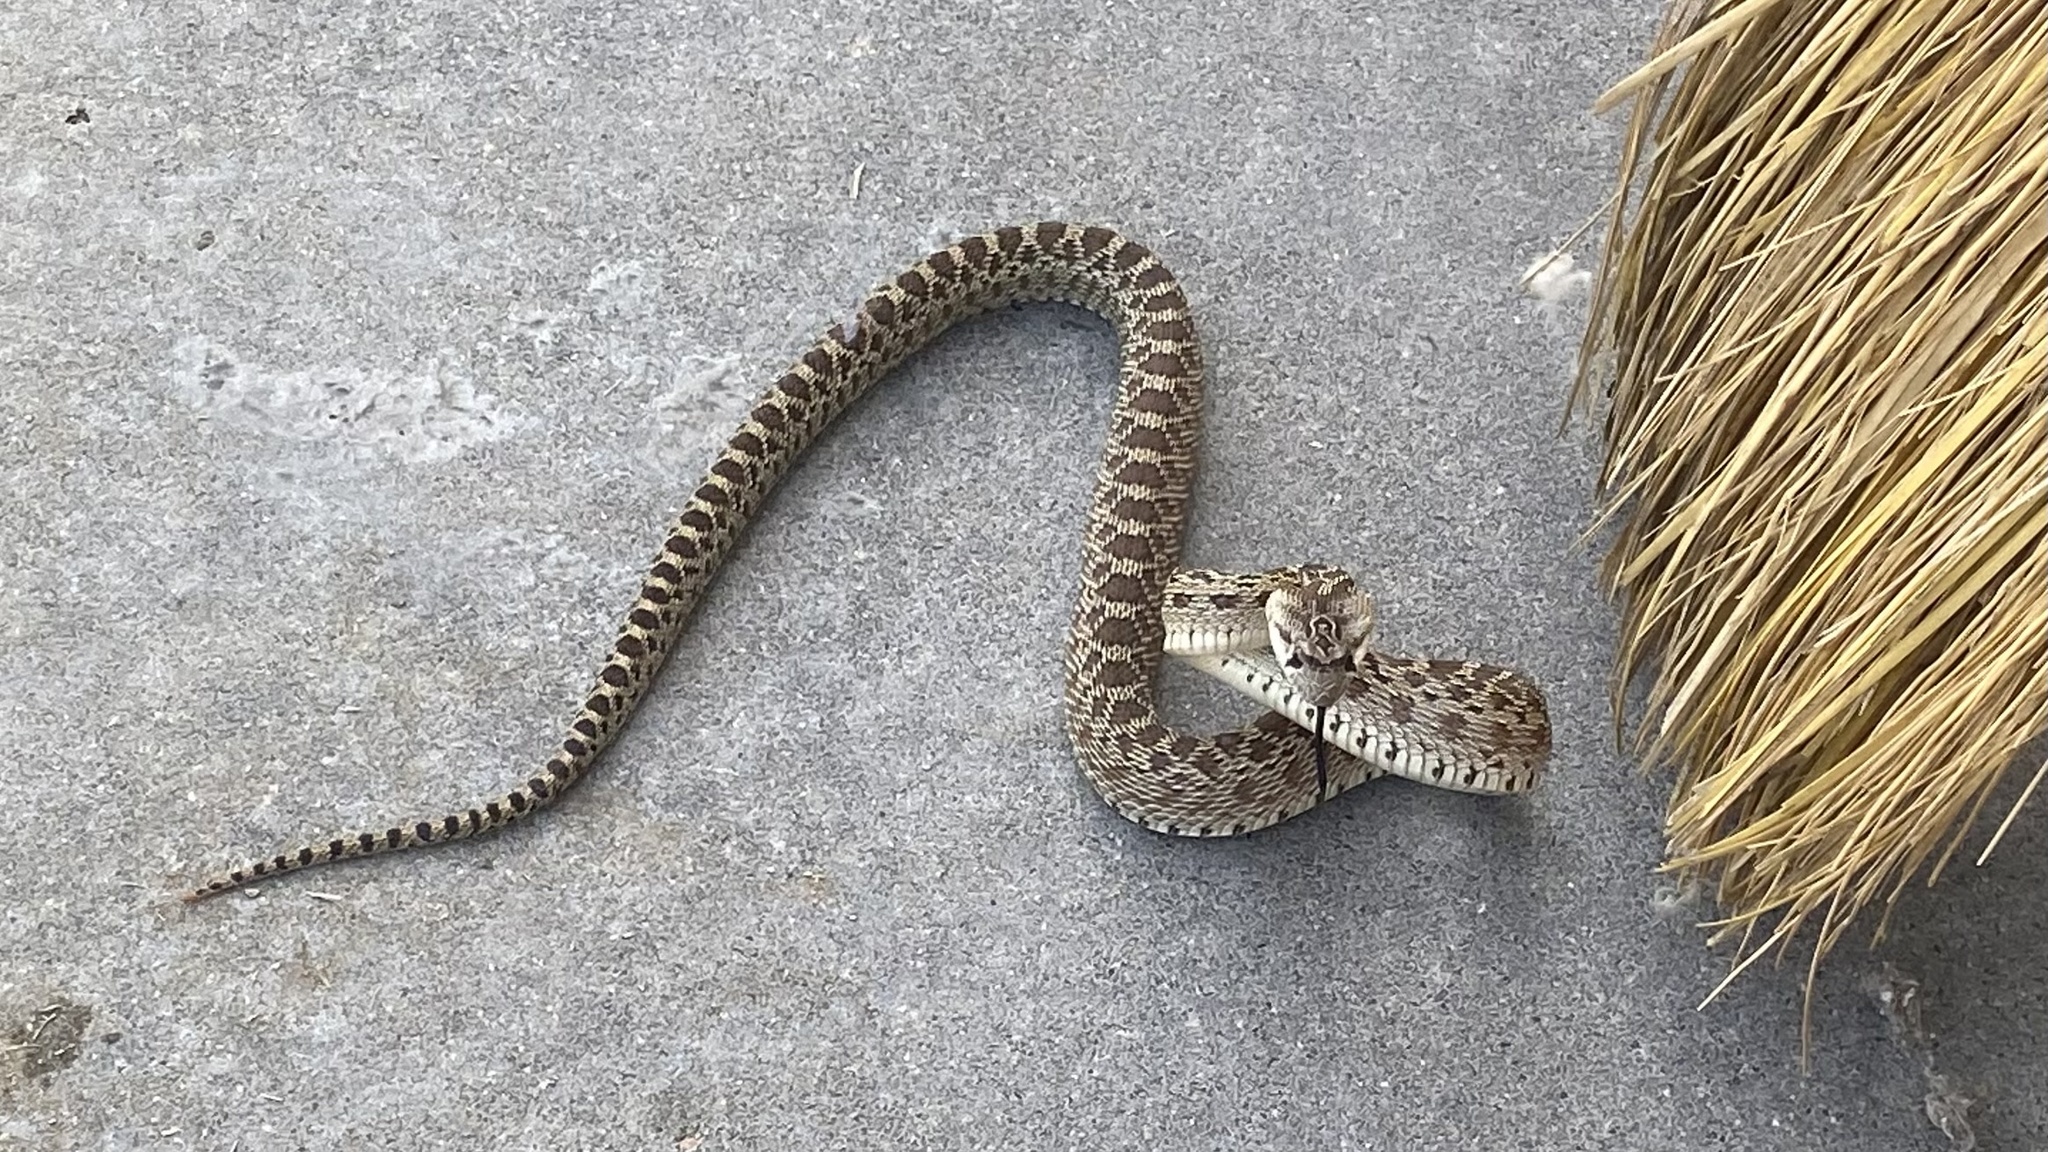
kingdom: Animalia
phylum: Chordata
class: Squamata
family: Colubridae
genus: Pituophis
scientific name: Pituophis catenifer
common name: Gopher snake
